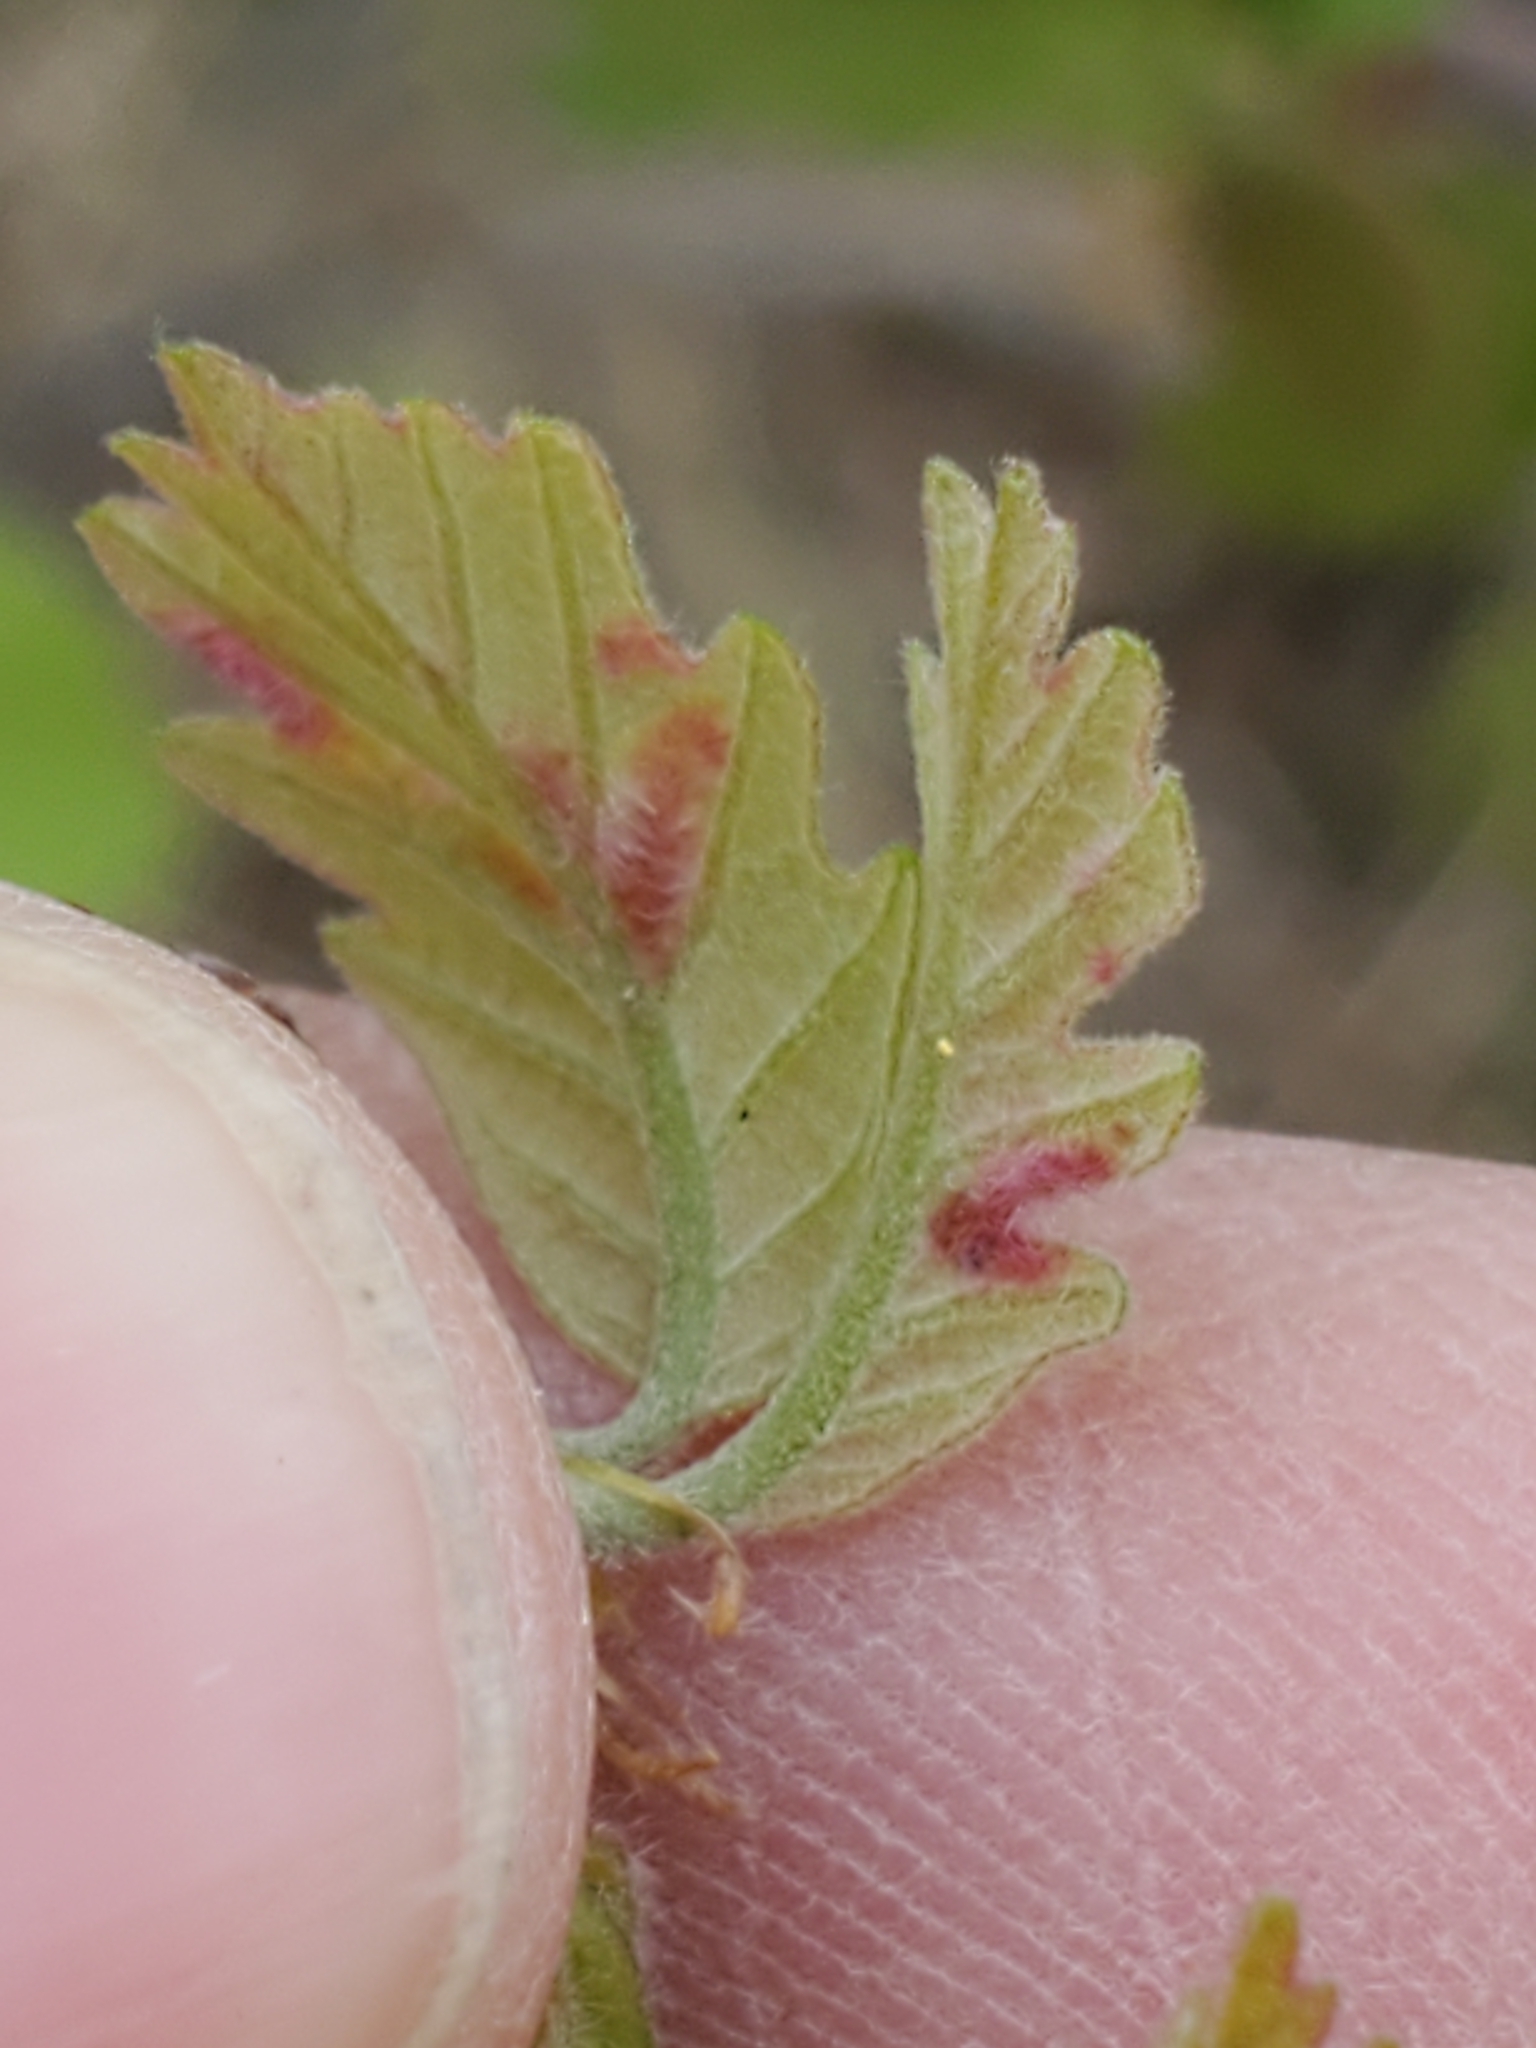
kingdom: Animalia
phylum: Arthropoda
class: Insecta
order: Hymenoptera
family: Cynipidae
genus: Neuroterus
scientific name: Neuroterus
